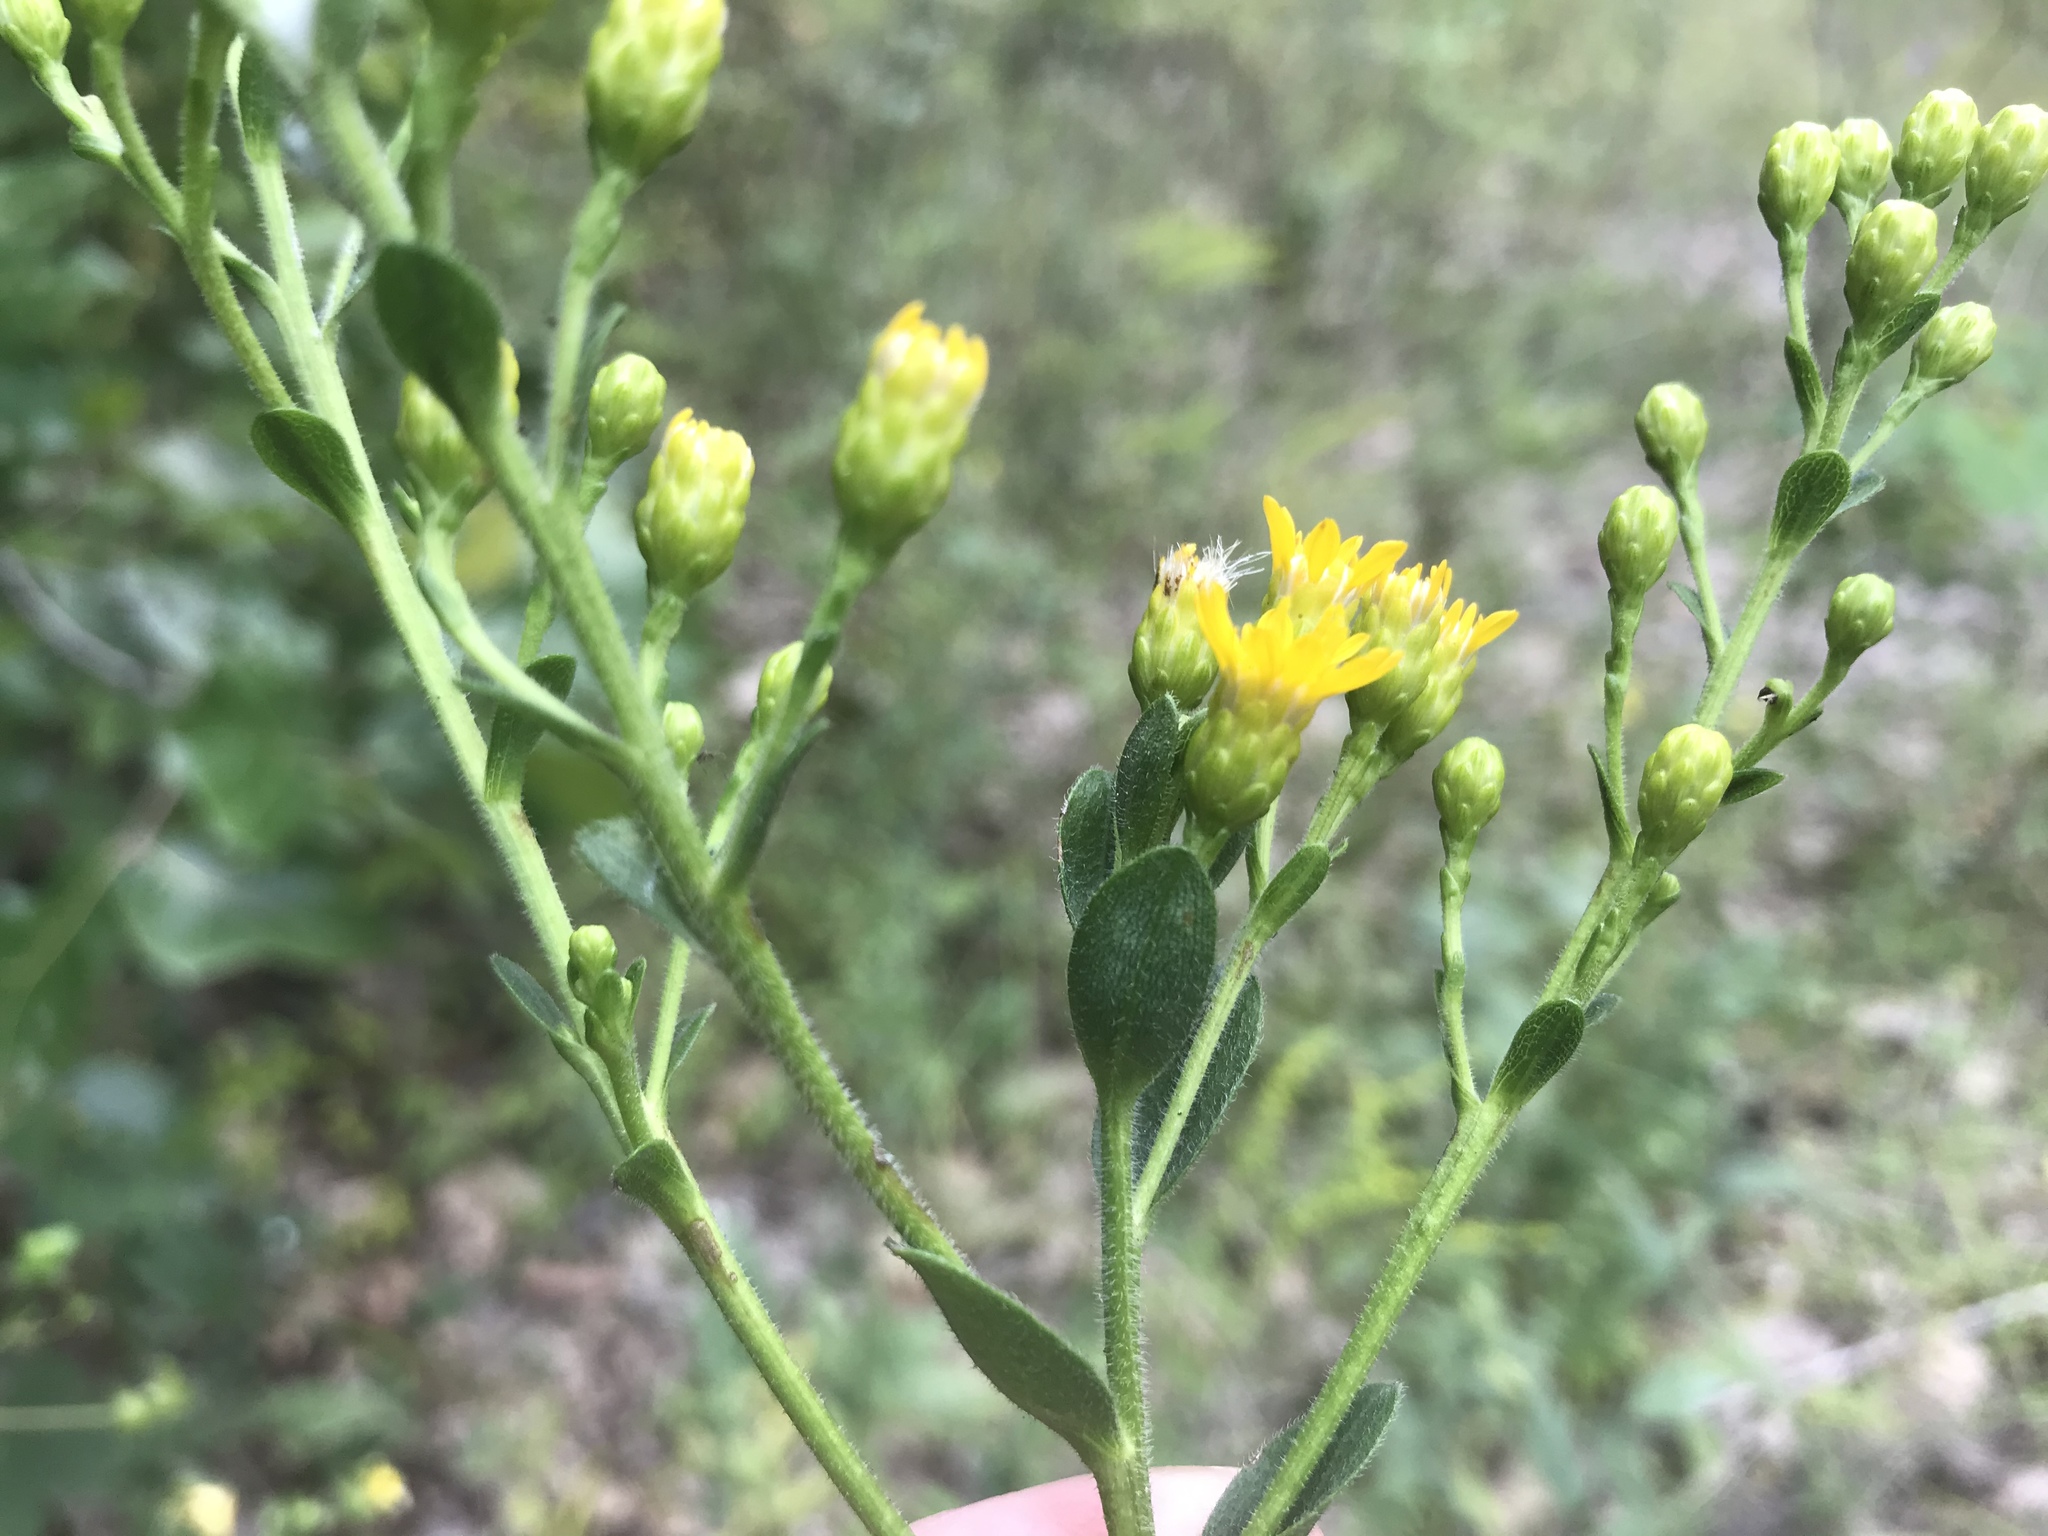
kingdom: Plantae
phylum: Tracheophyta
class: Magnoliopsida
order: Asterales
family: Asteraceae
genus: Solidago
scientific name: Solidago rigida
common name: Rigid goldenrod
